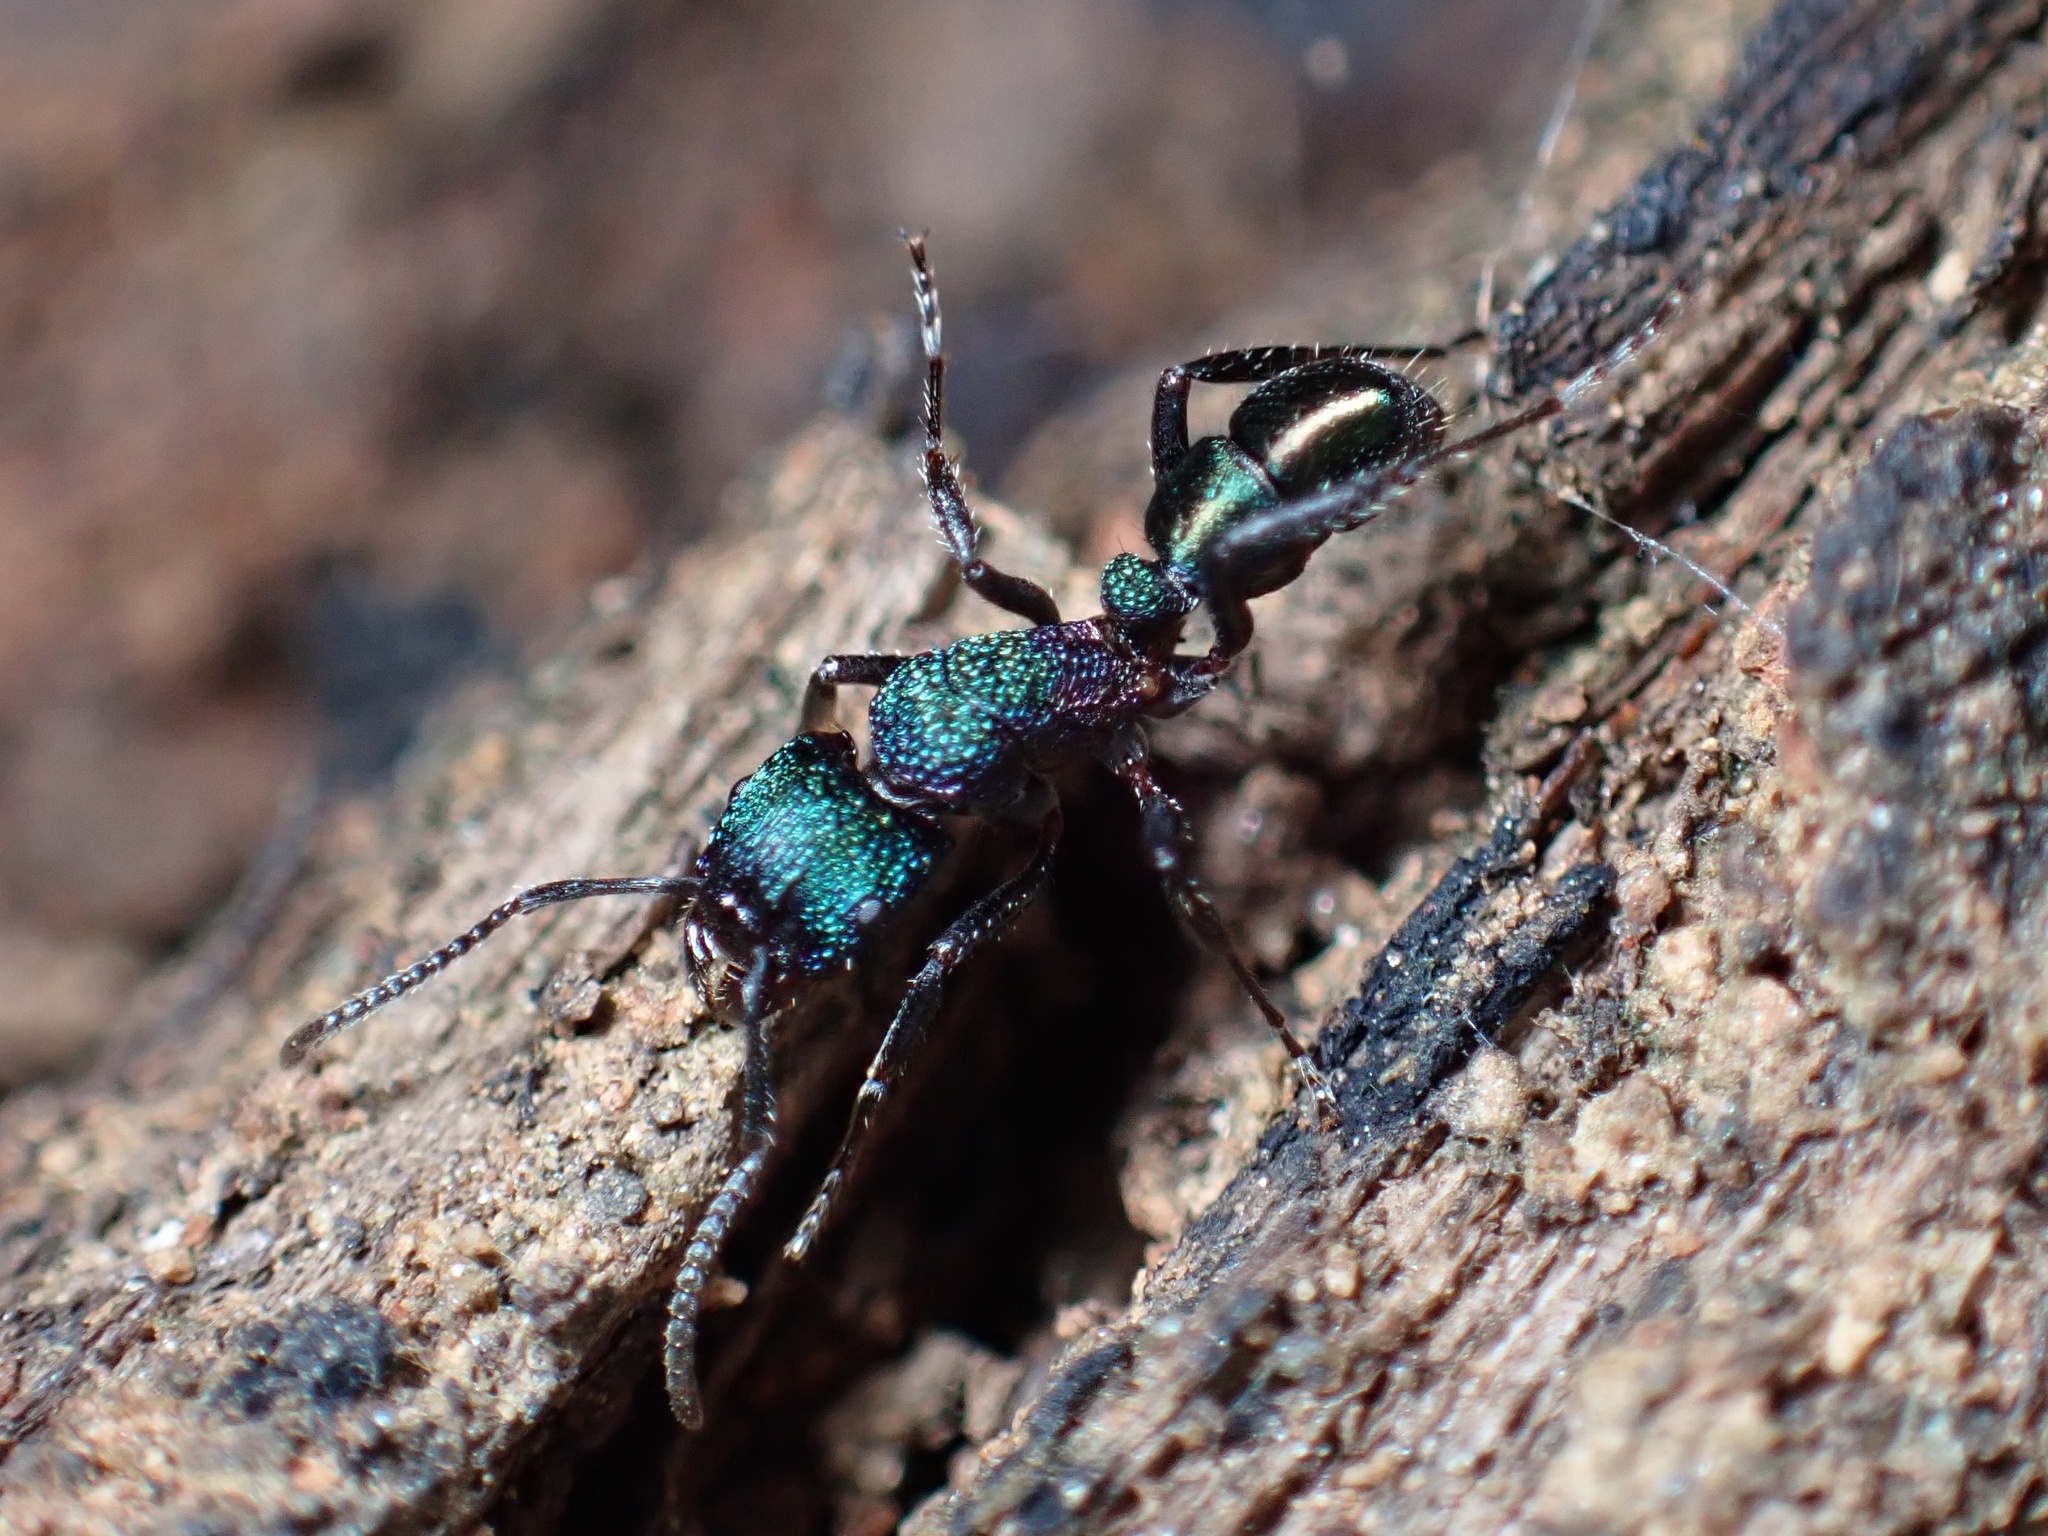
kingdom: Animalia
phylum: Arthropoda
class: Insecta
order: Hymenoptera
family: Formicidae
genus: Rhytidoponera
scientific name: Rhytidoponera metallica
